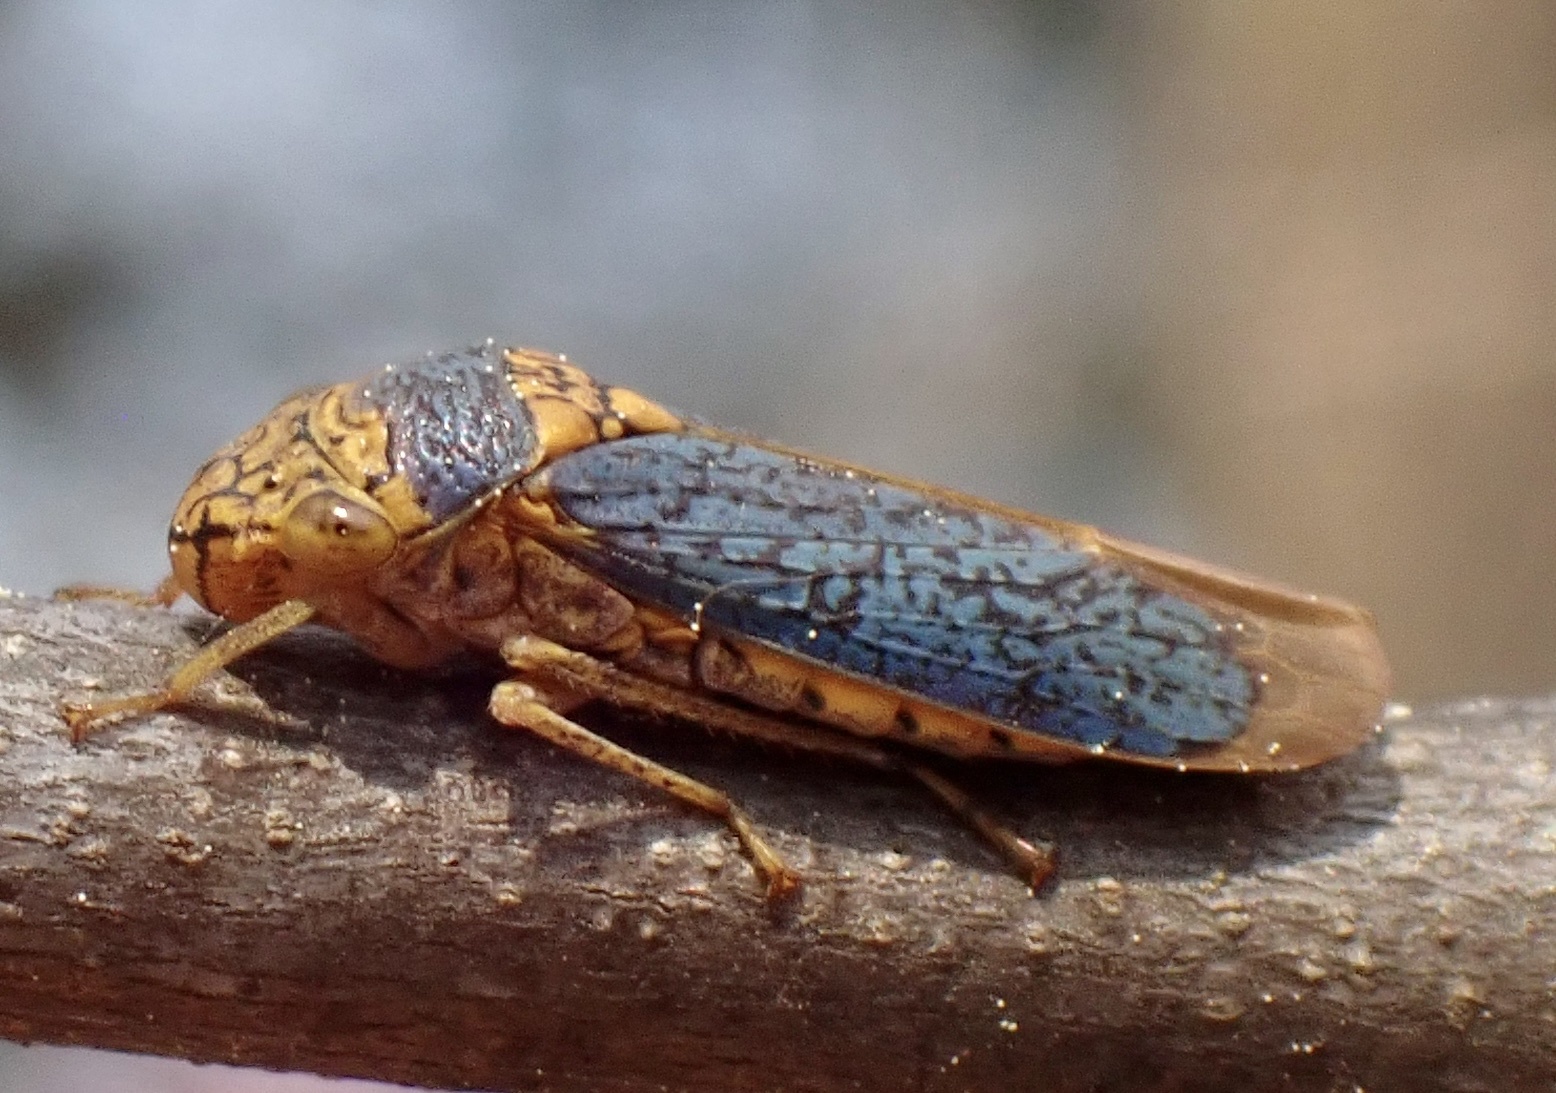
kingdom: Animalia
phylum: Arthropoda
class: Insecta
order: Hemiptera
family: Cicadellidae
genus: Oncometopia
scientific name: Oncometopia orbona
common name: Broad-headed sharpshooter
